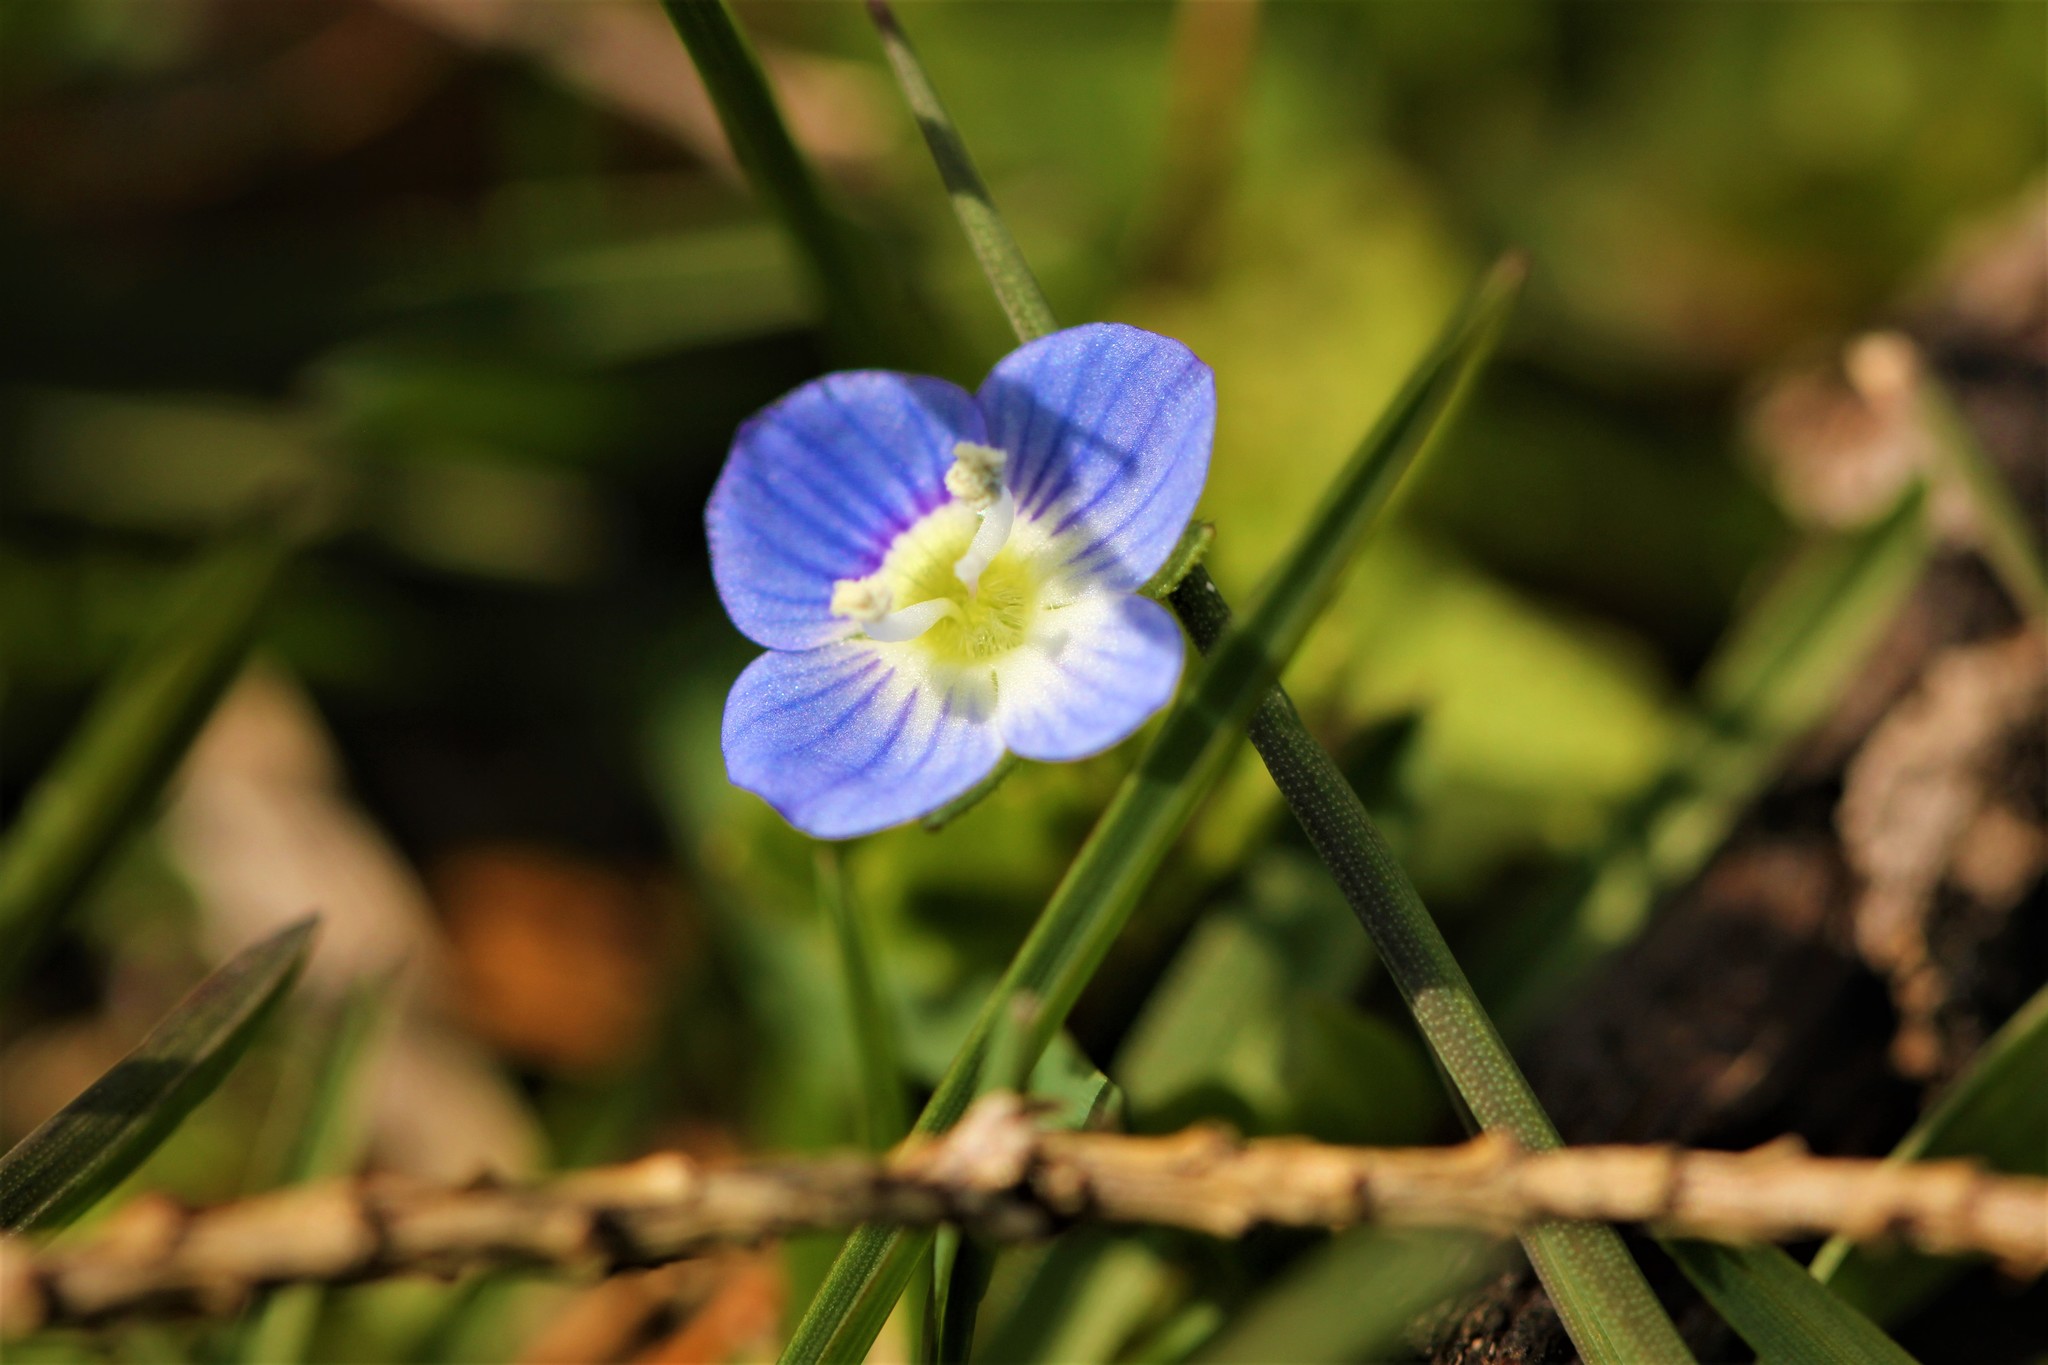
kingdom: Plantae
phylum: Tracheophyta
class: Magnoliopsida
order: Lamiales
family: Plantaginaceae
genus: Veronica
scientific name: Veronica persica
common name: Common field-speedwell
